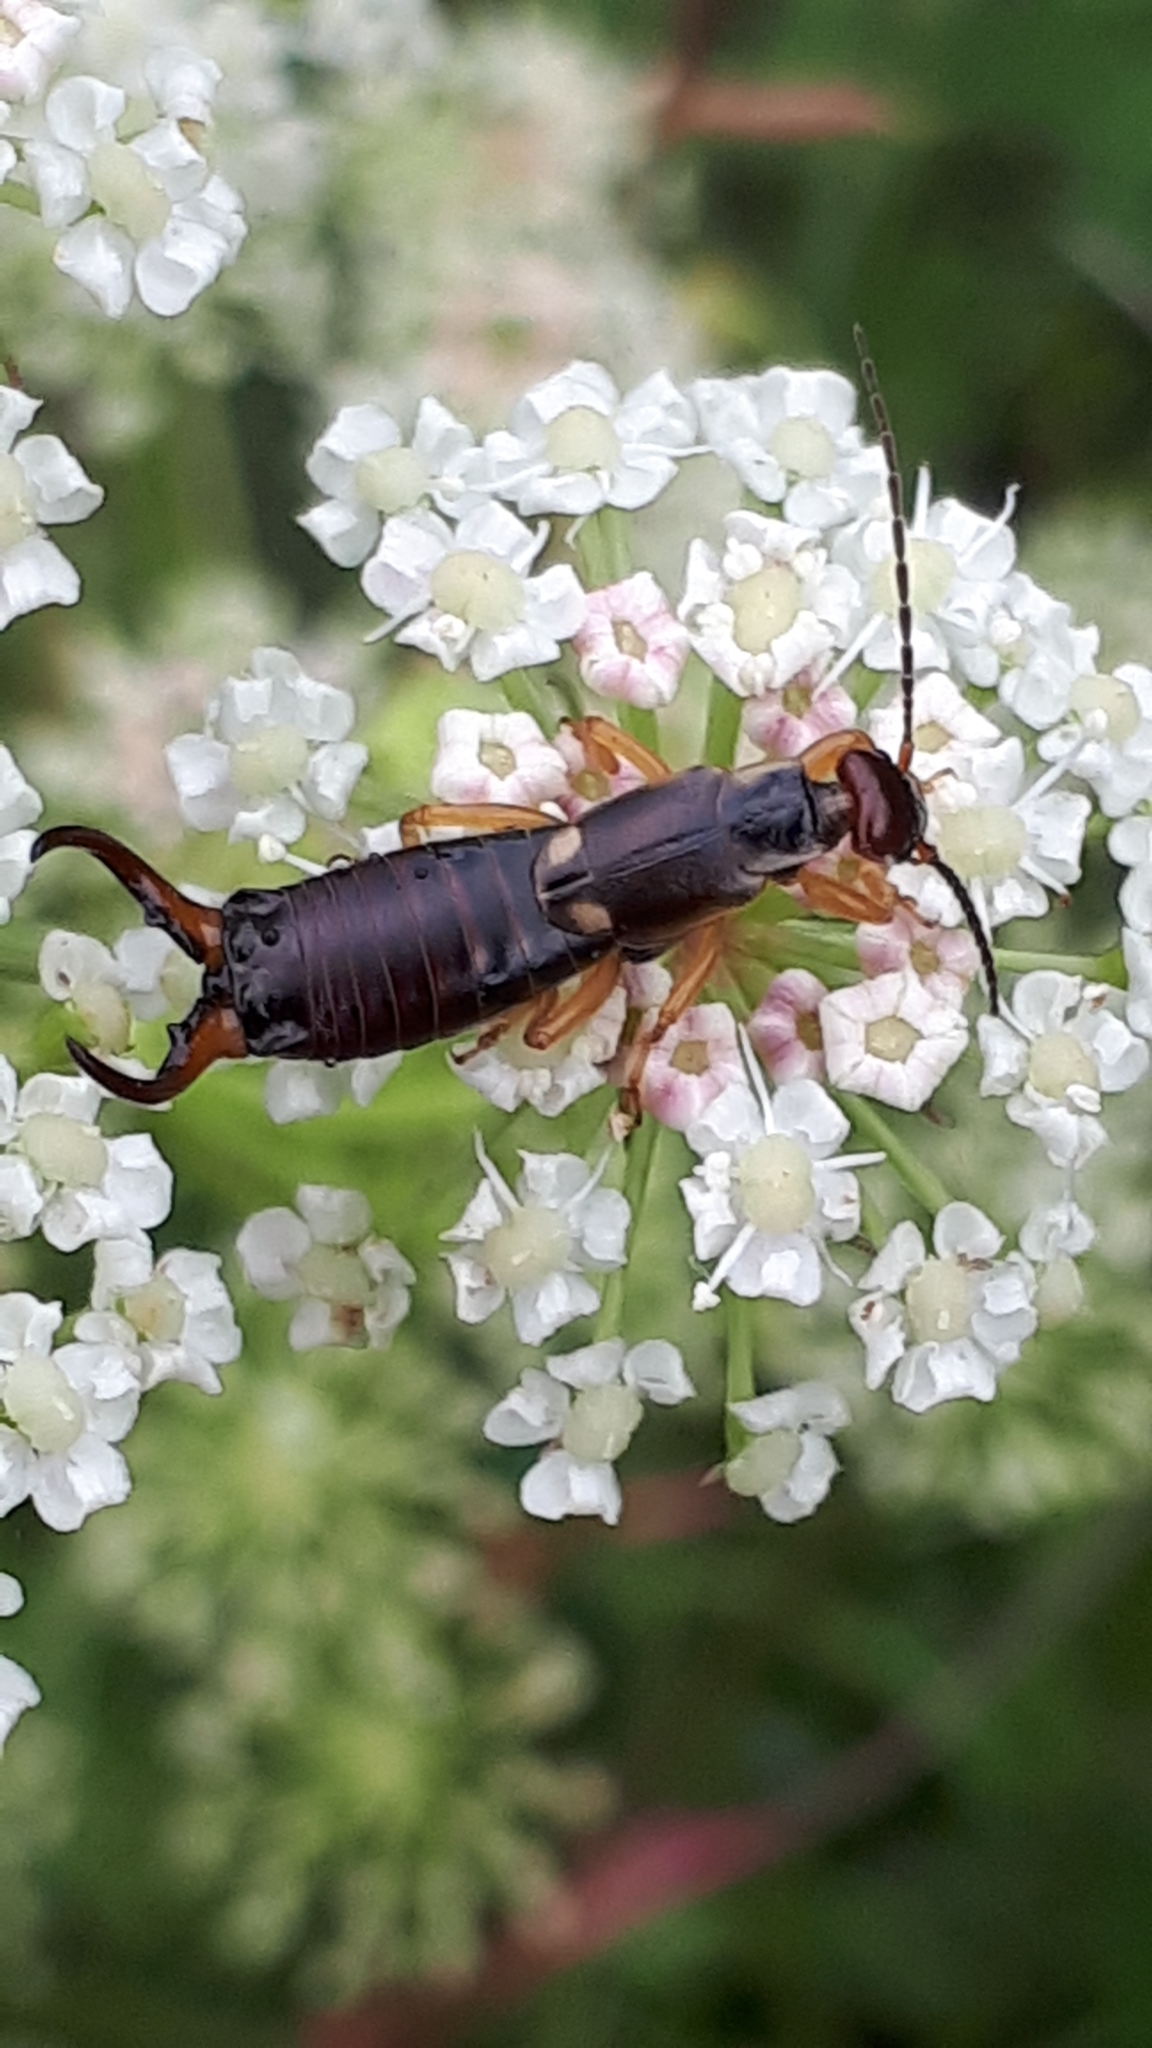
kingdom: Animalia
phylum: Arthropoda
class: Insecta
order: Dermaptera
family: Forficulidae
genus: Forficula
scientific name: Forficula
